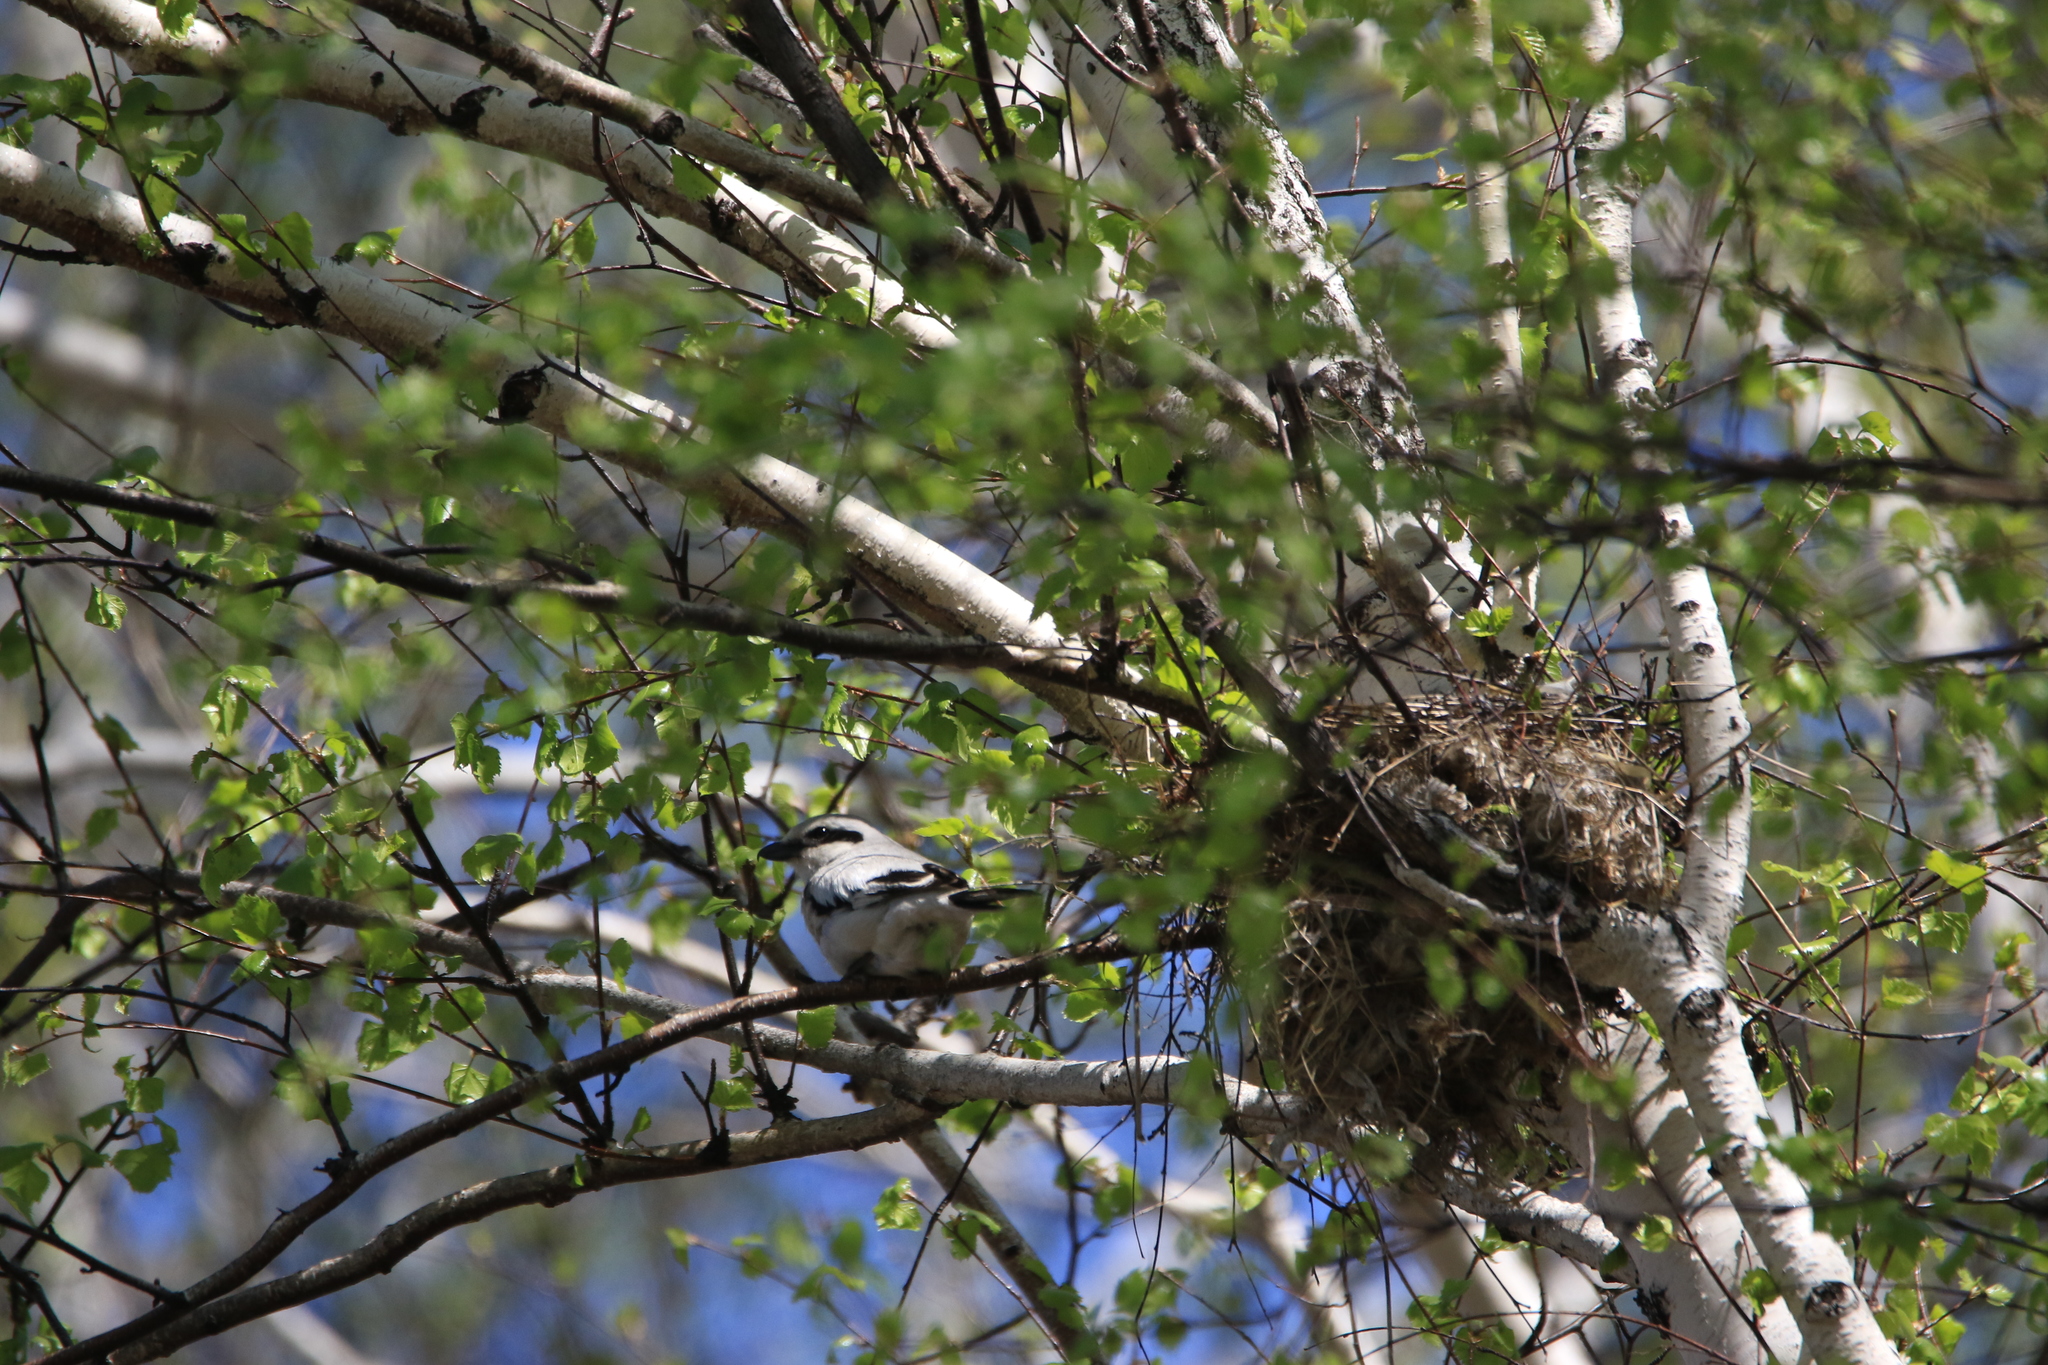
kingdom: Animalia
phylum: Chordata
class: Aves
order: Passeriformes
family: Laniidae
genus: Lanius
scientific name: Lanius excubitor
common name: Great grey shrike
